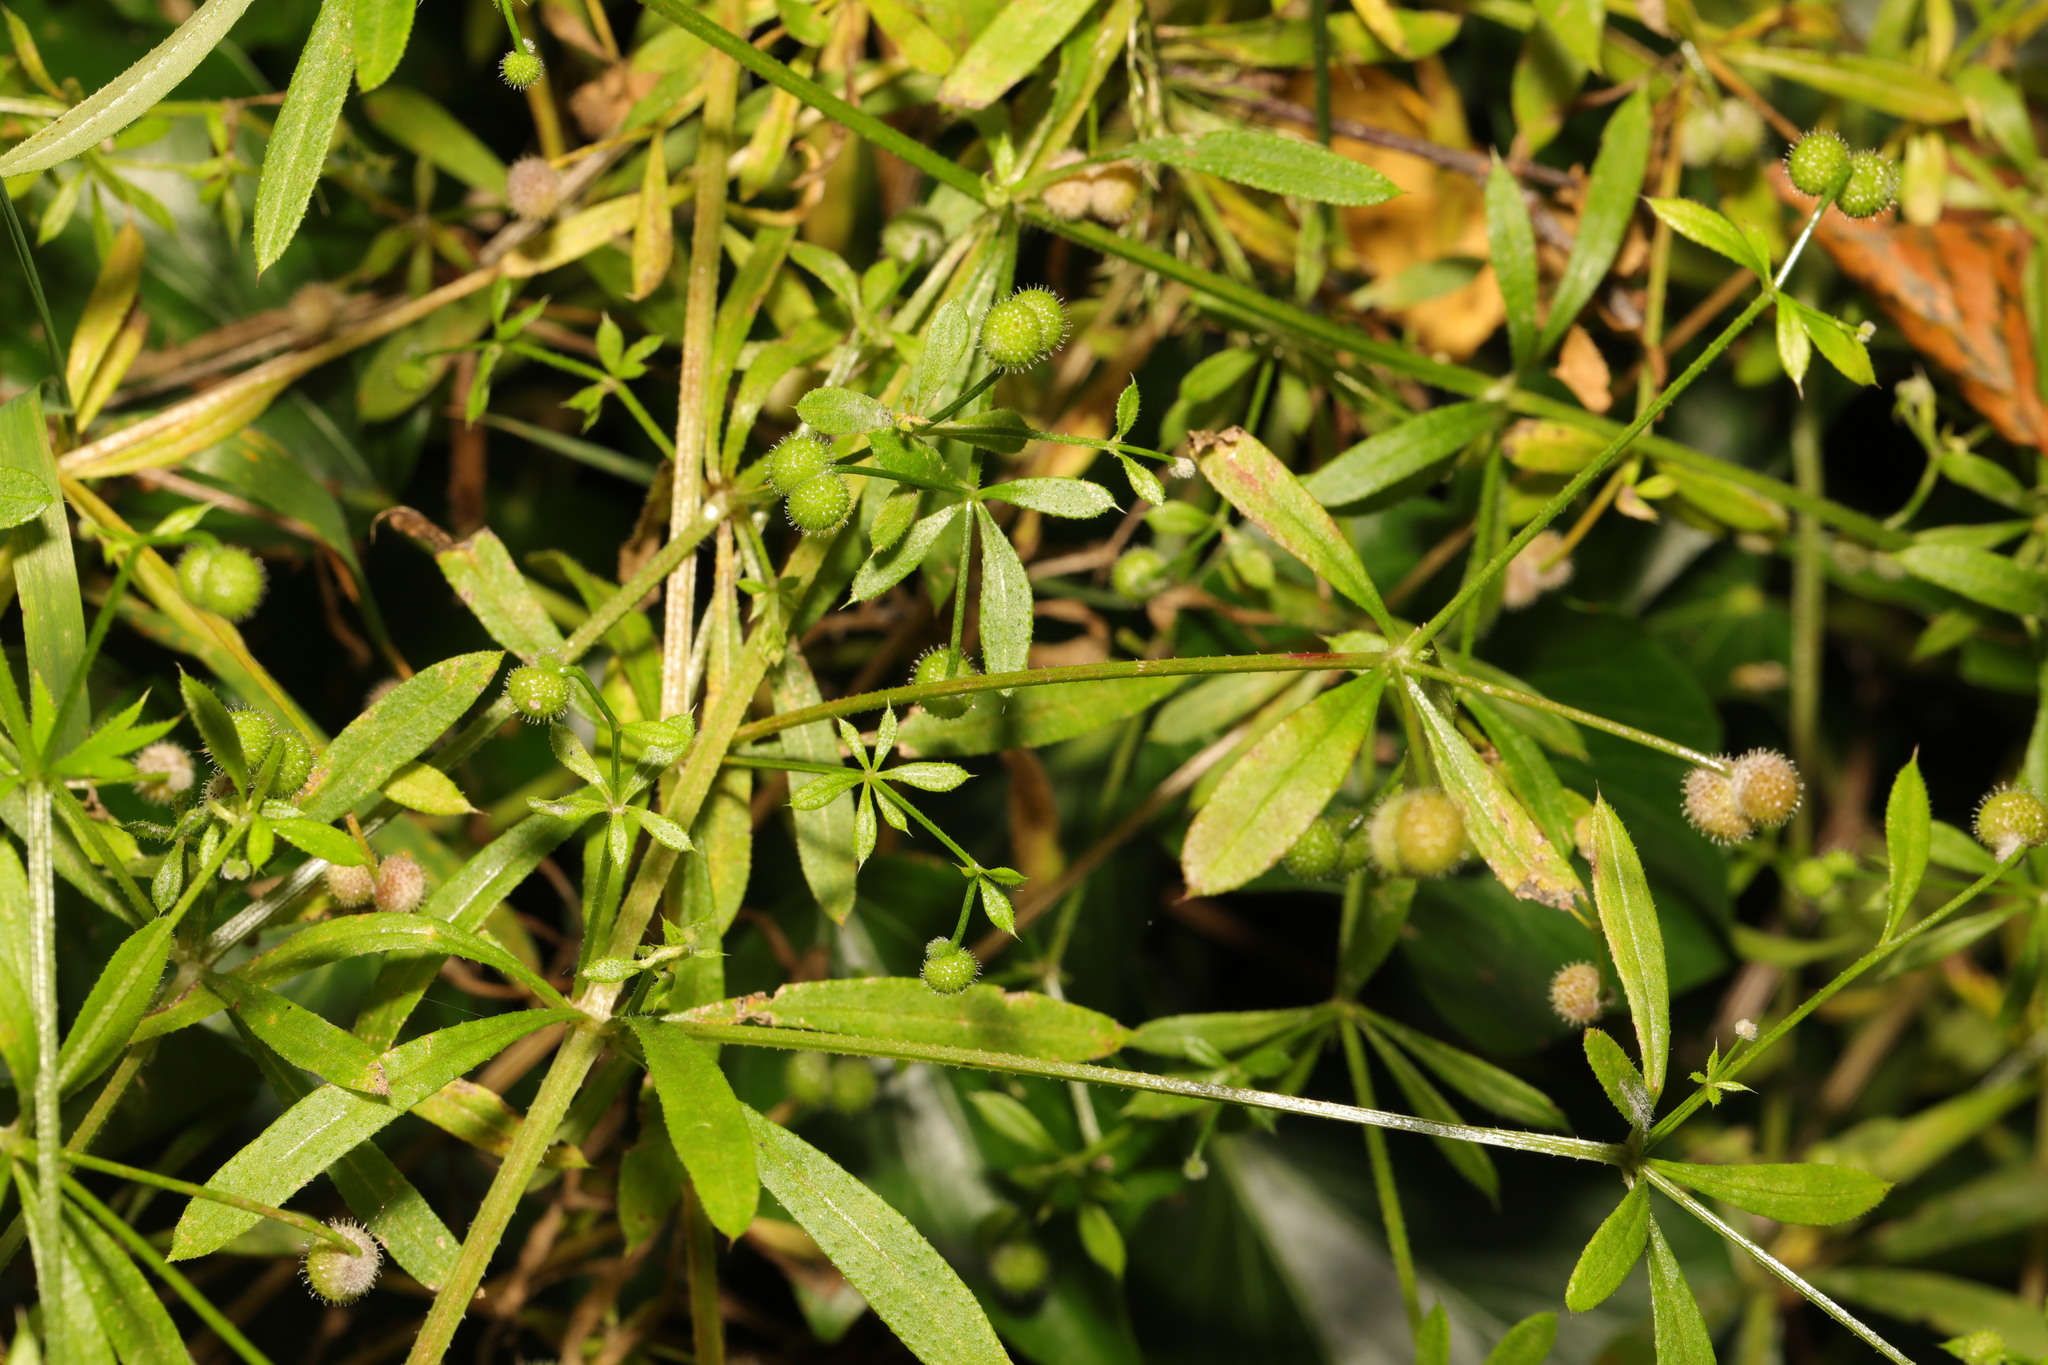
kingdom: Plantae
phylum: Tracheophyta
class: Magnoliopsida
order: Gentianales
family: Rubiaceae
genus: Galium
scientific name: Galium aparine
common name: Cleavers
